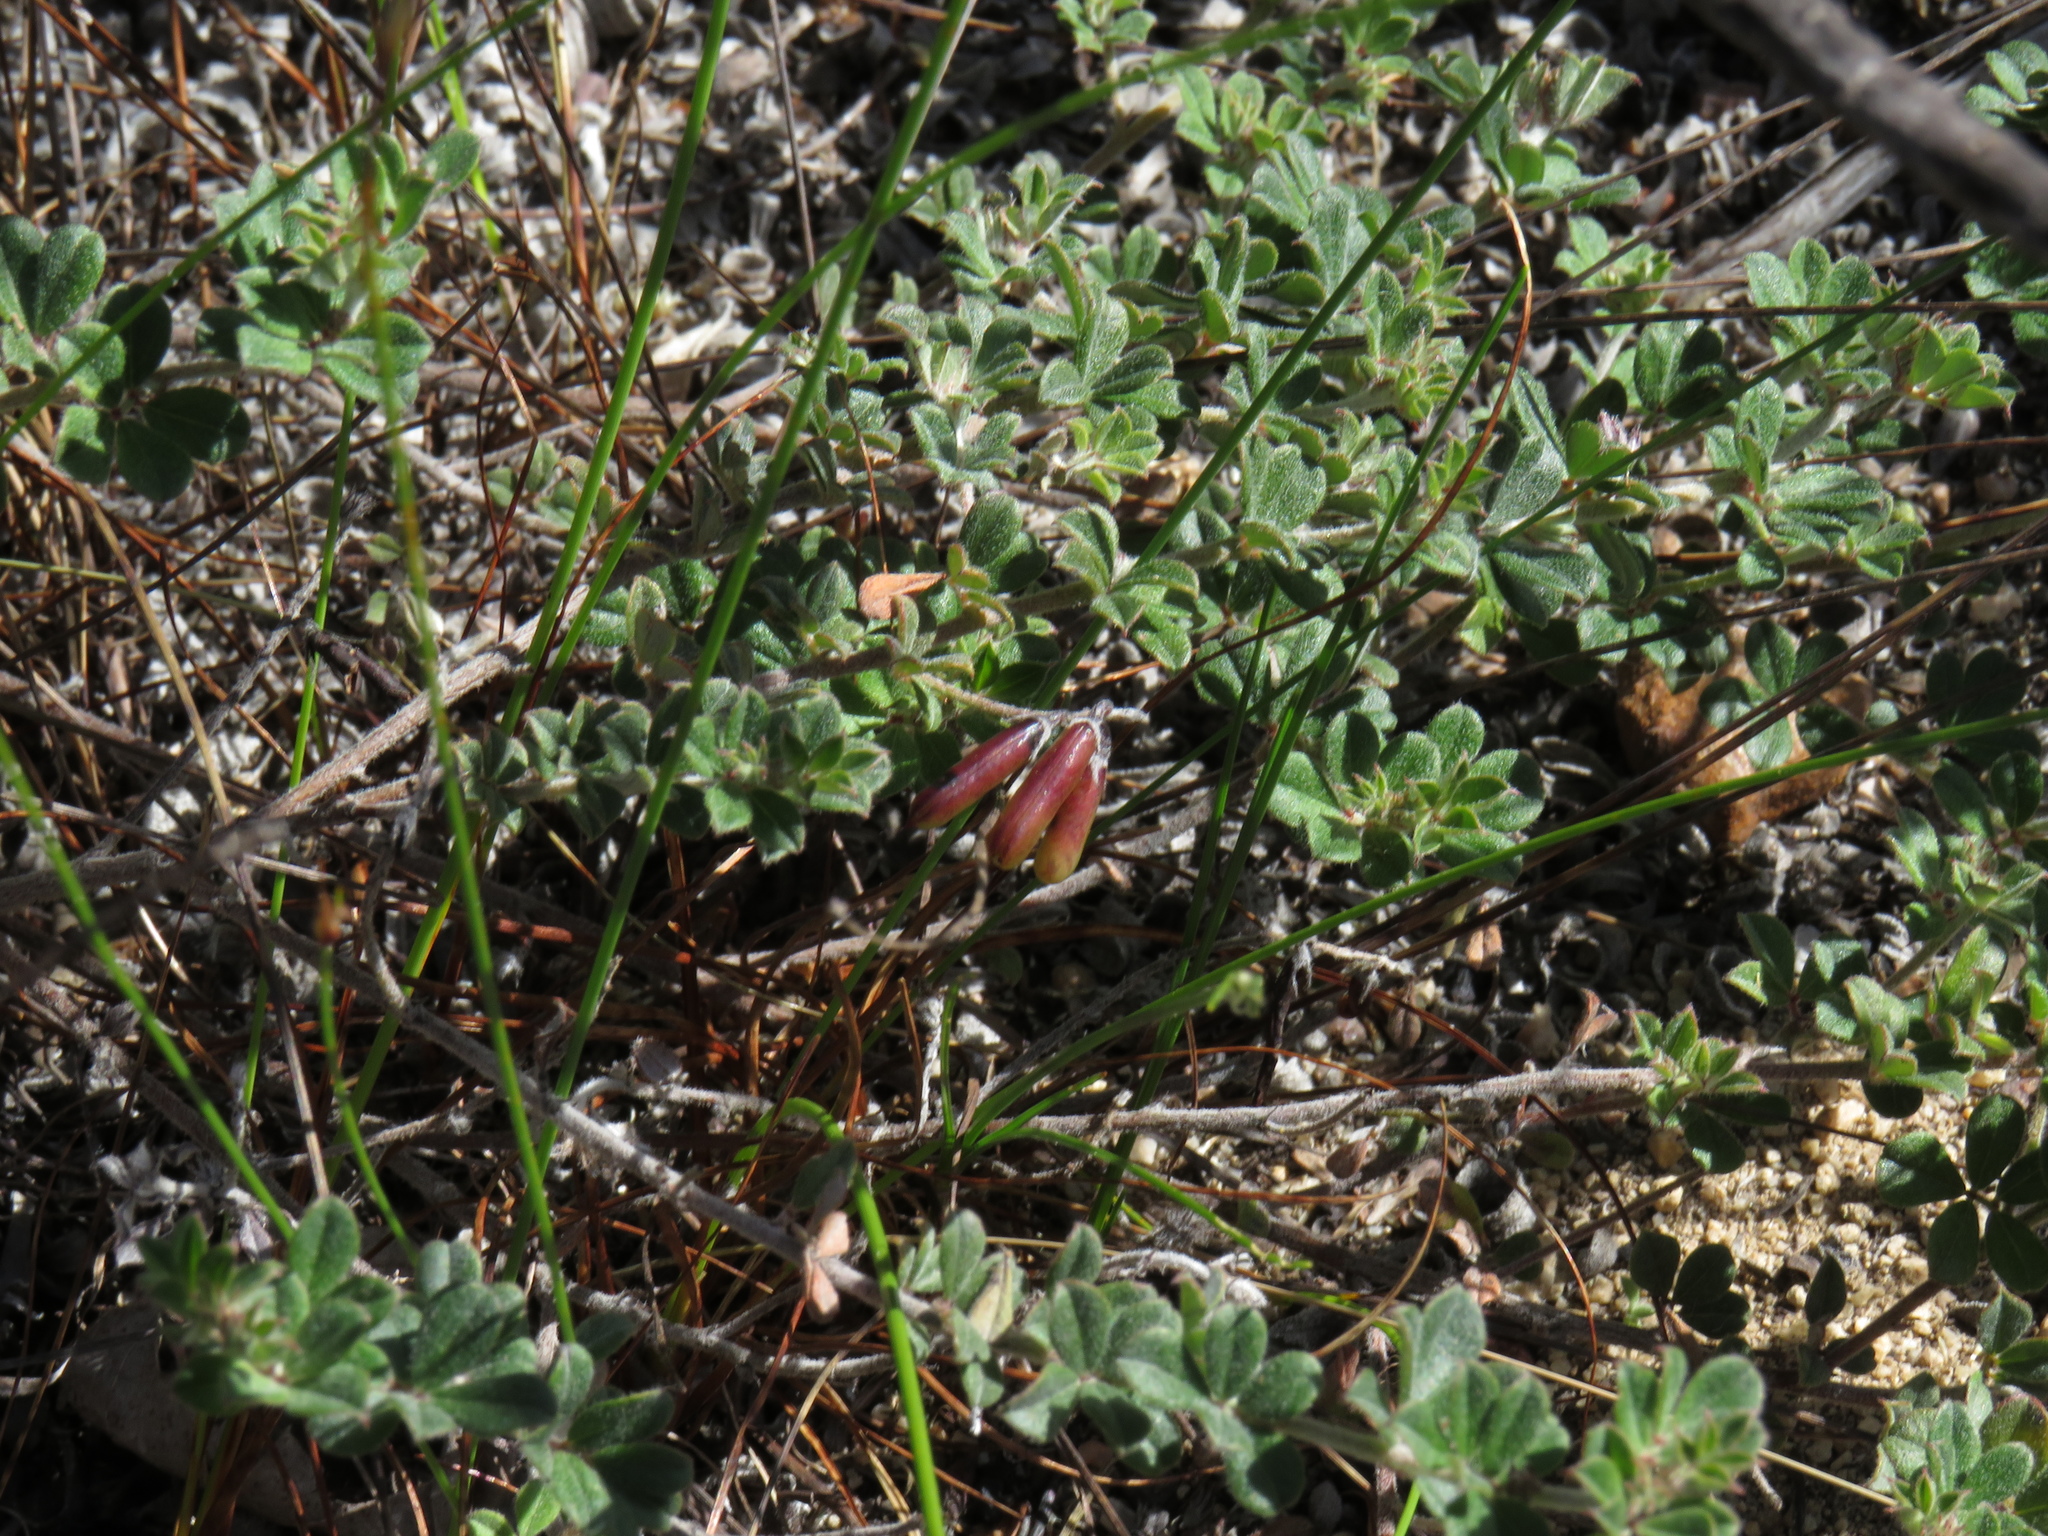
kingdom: Plantae
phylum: Tracheophyta
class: Magnoliopsida
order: Fabales
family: Fabaceae
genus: Indigofera
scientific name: Indigofera mauritanica
